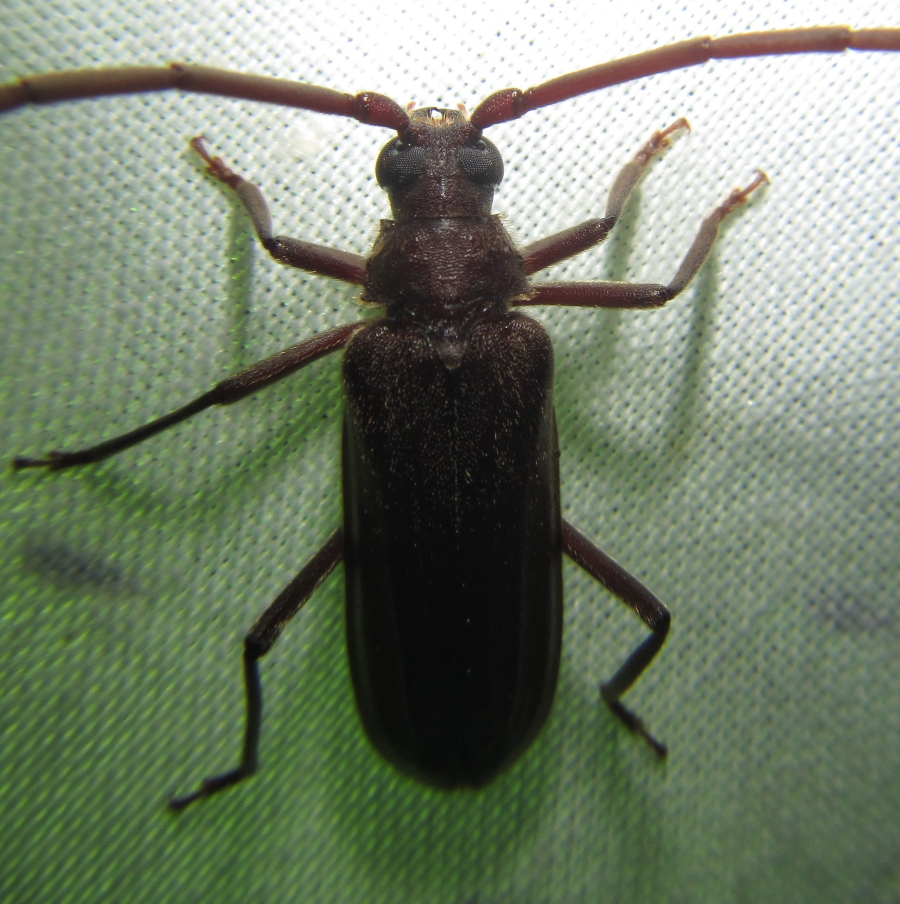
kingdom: Animalia
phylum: Arthropoda
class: Insecta
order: Coleoptera
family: Cerambycidae
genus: Oceanomegopis
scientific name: Oceanomegopis caledonica
